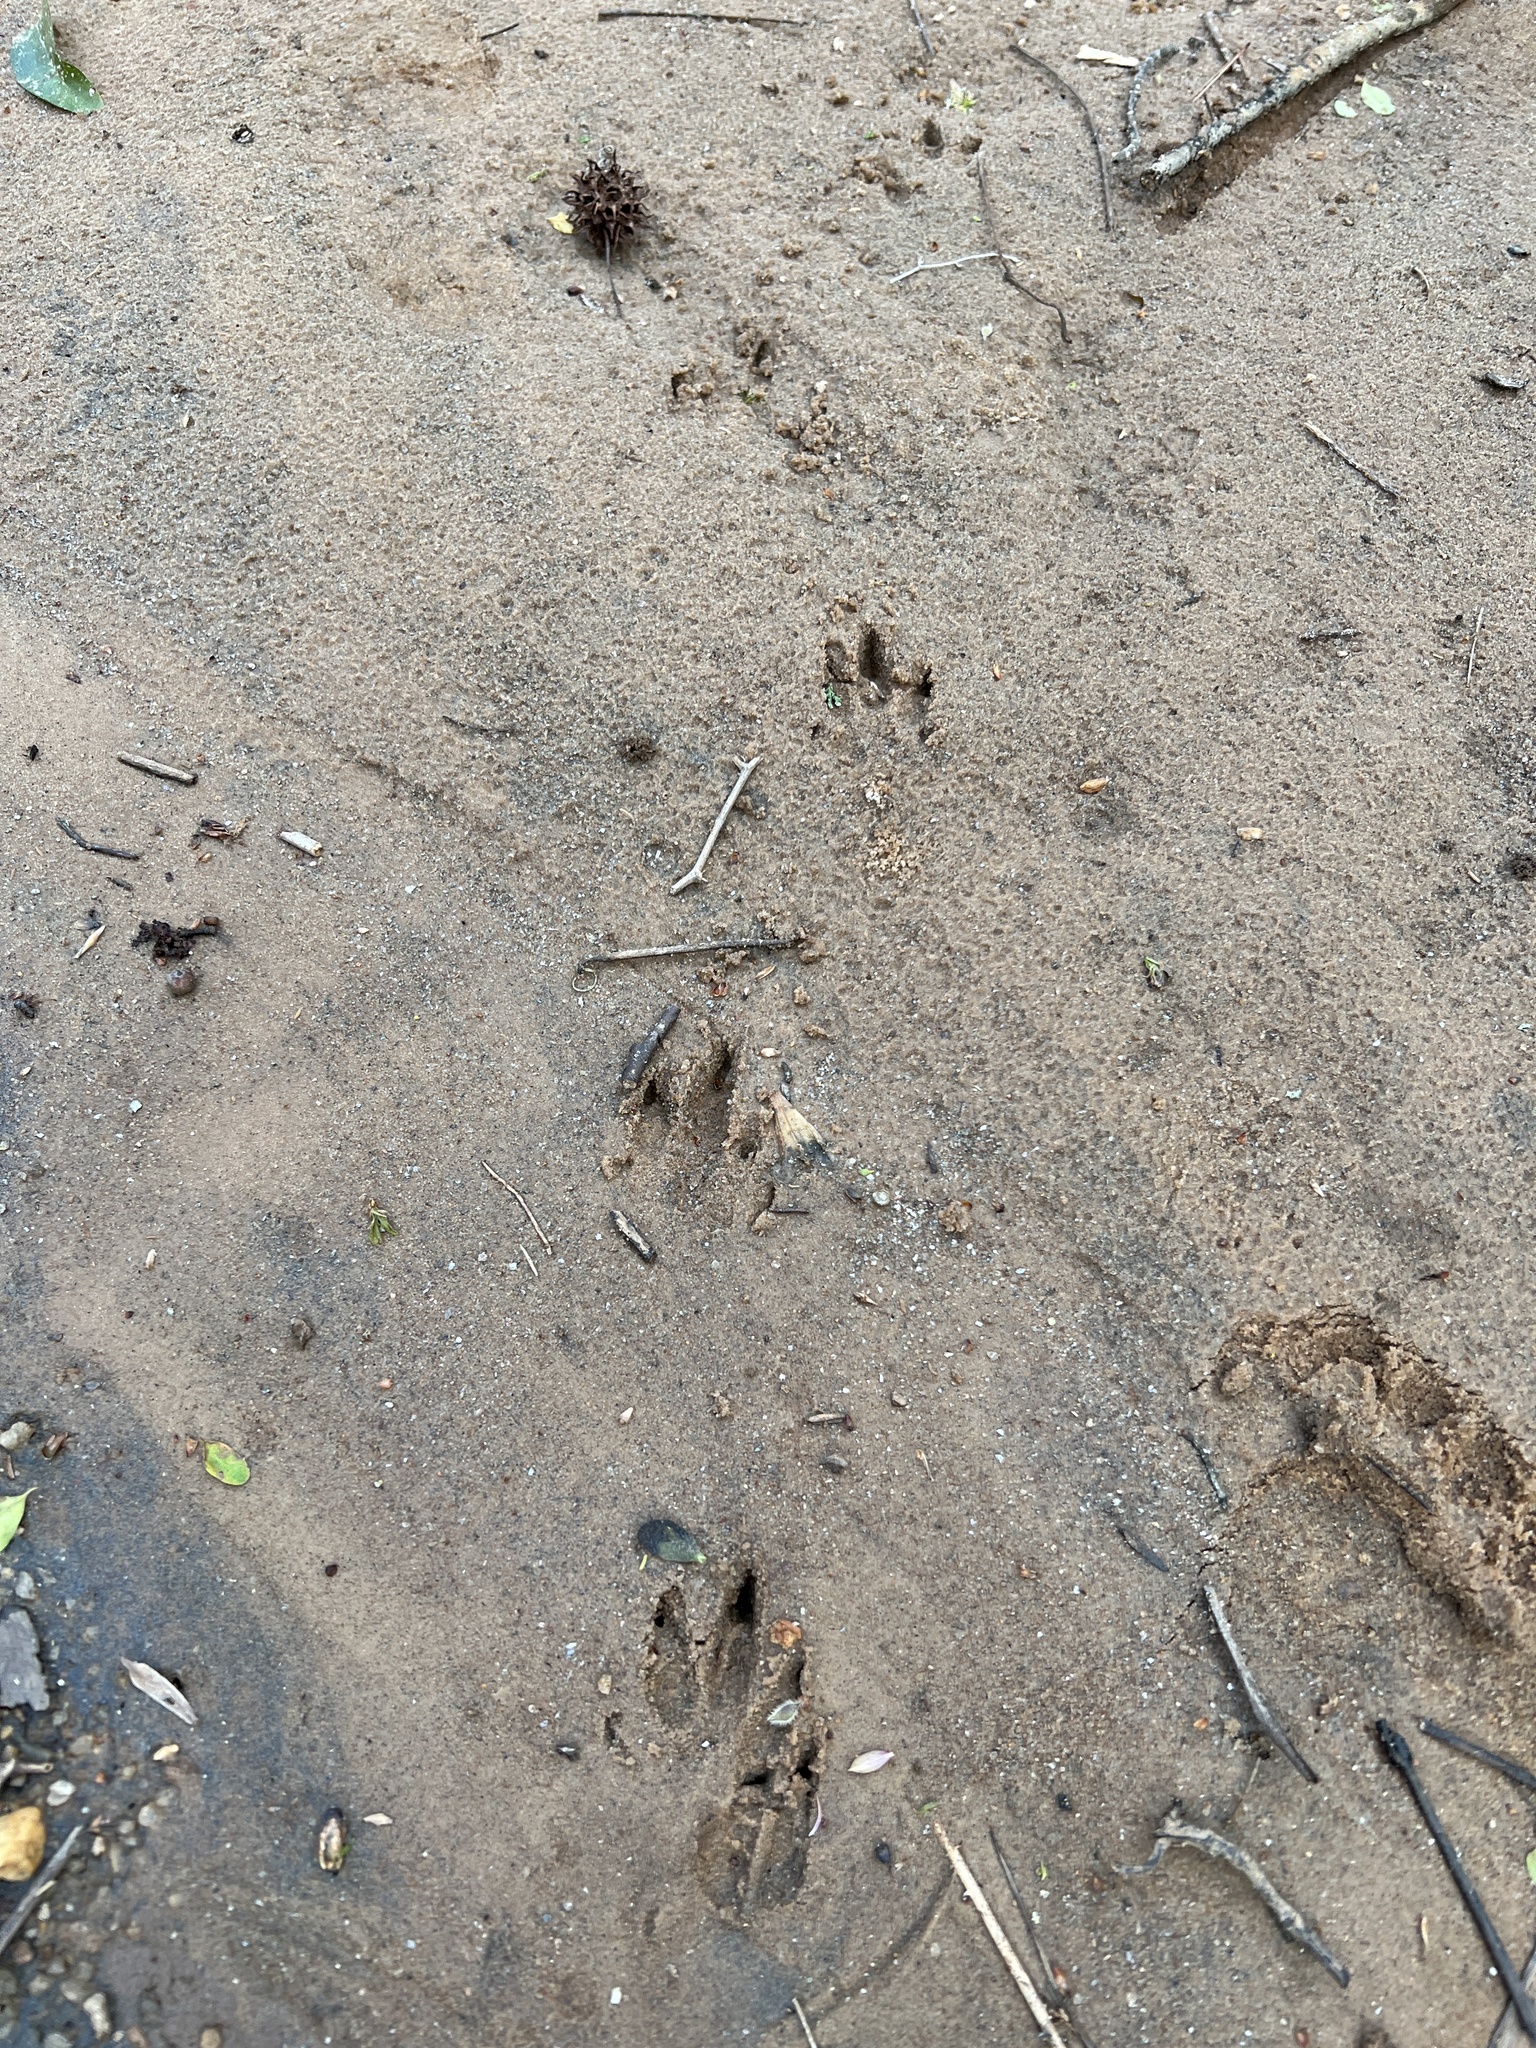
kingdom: Animalia
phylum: Chordata
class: Mammalia
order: Cingulata
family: Dasypodidae
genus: Dasypus
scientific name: Dasypus novemcinctus
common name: Nine-banded armadillo
